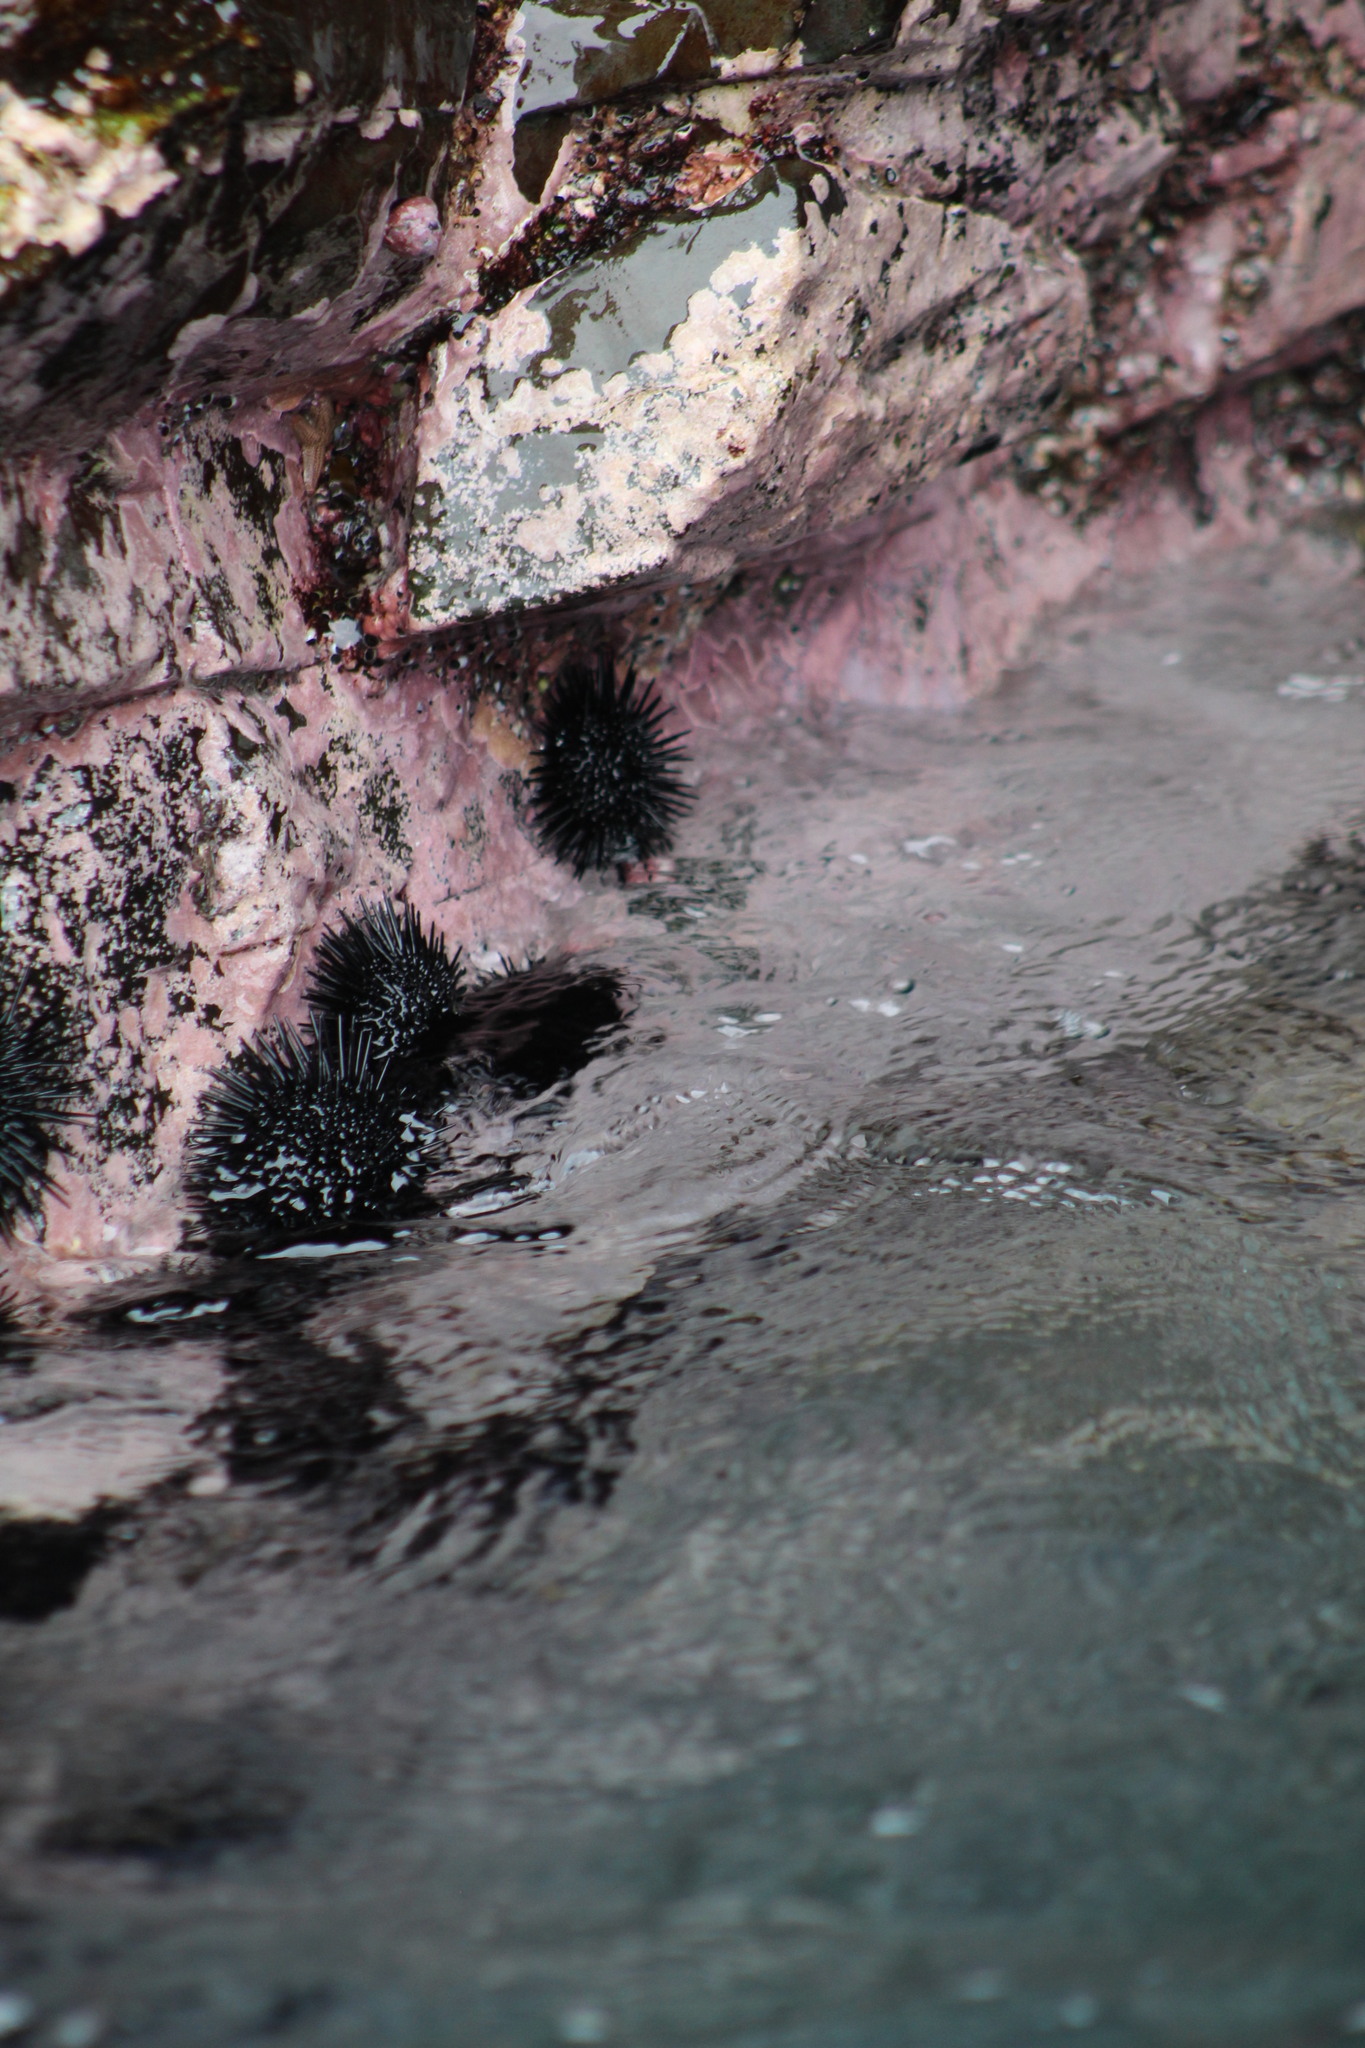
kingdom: Animalia
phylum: Echinodermata
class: Echinoidea
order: Arbacioida
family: Arbaciidae
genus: Tetrapygus
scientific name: Tetrapygus niger
